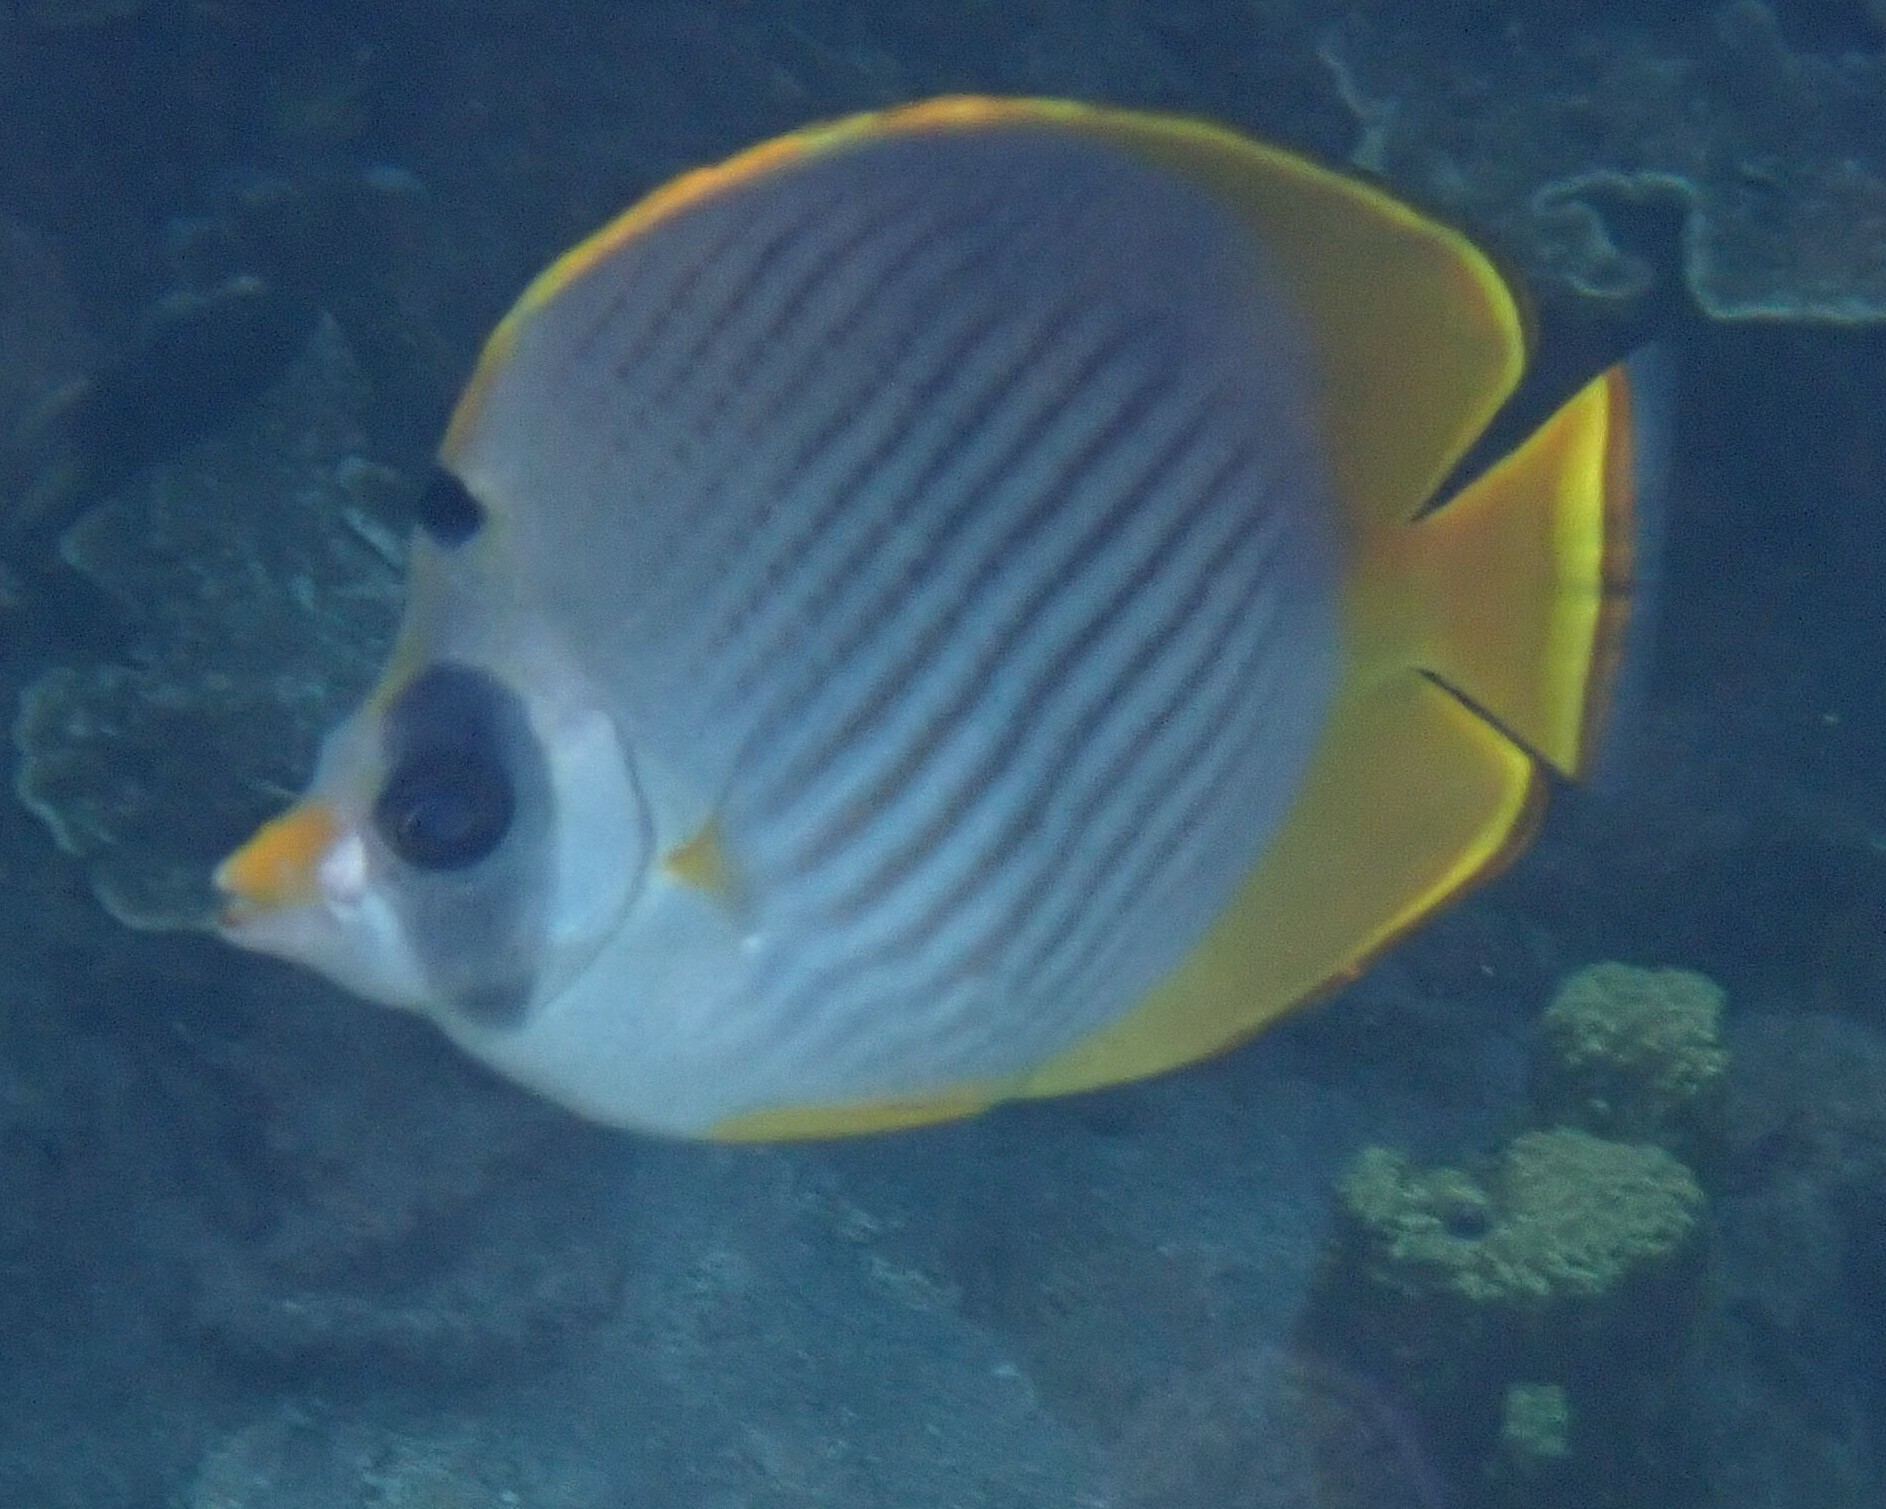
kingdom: Animalia
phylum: Chordata
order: Perciformes
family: Chaetodontidae
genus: Chaetodon
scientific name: Chaetodon adiergastos
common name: Eye-patch butterflyfish
